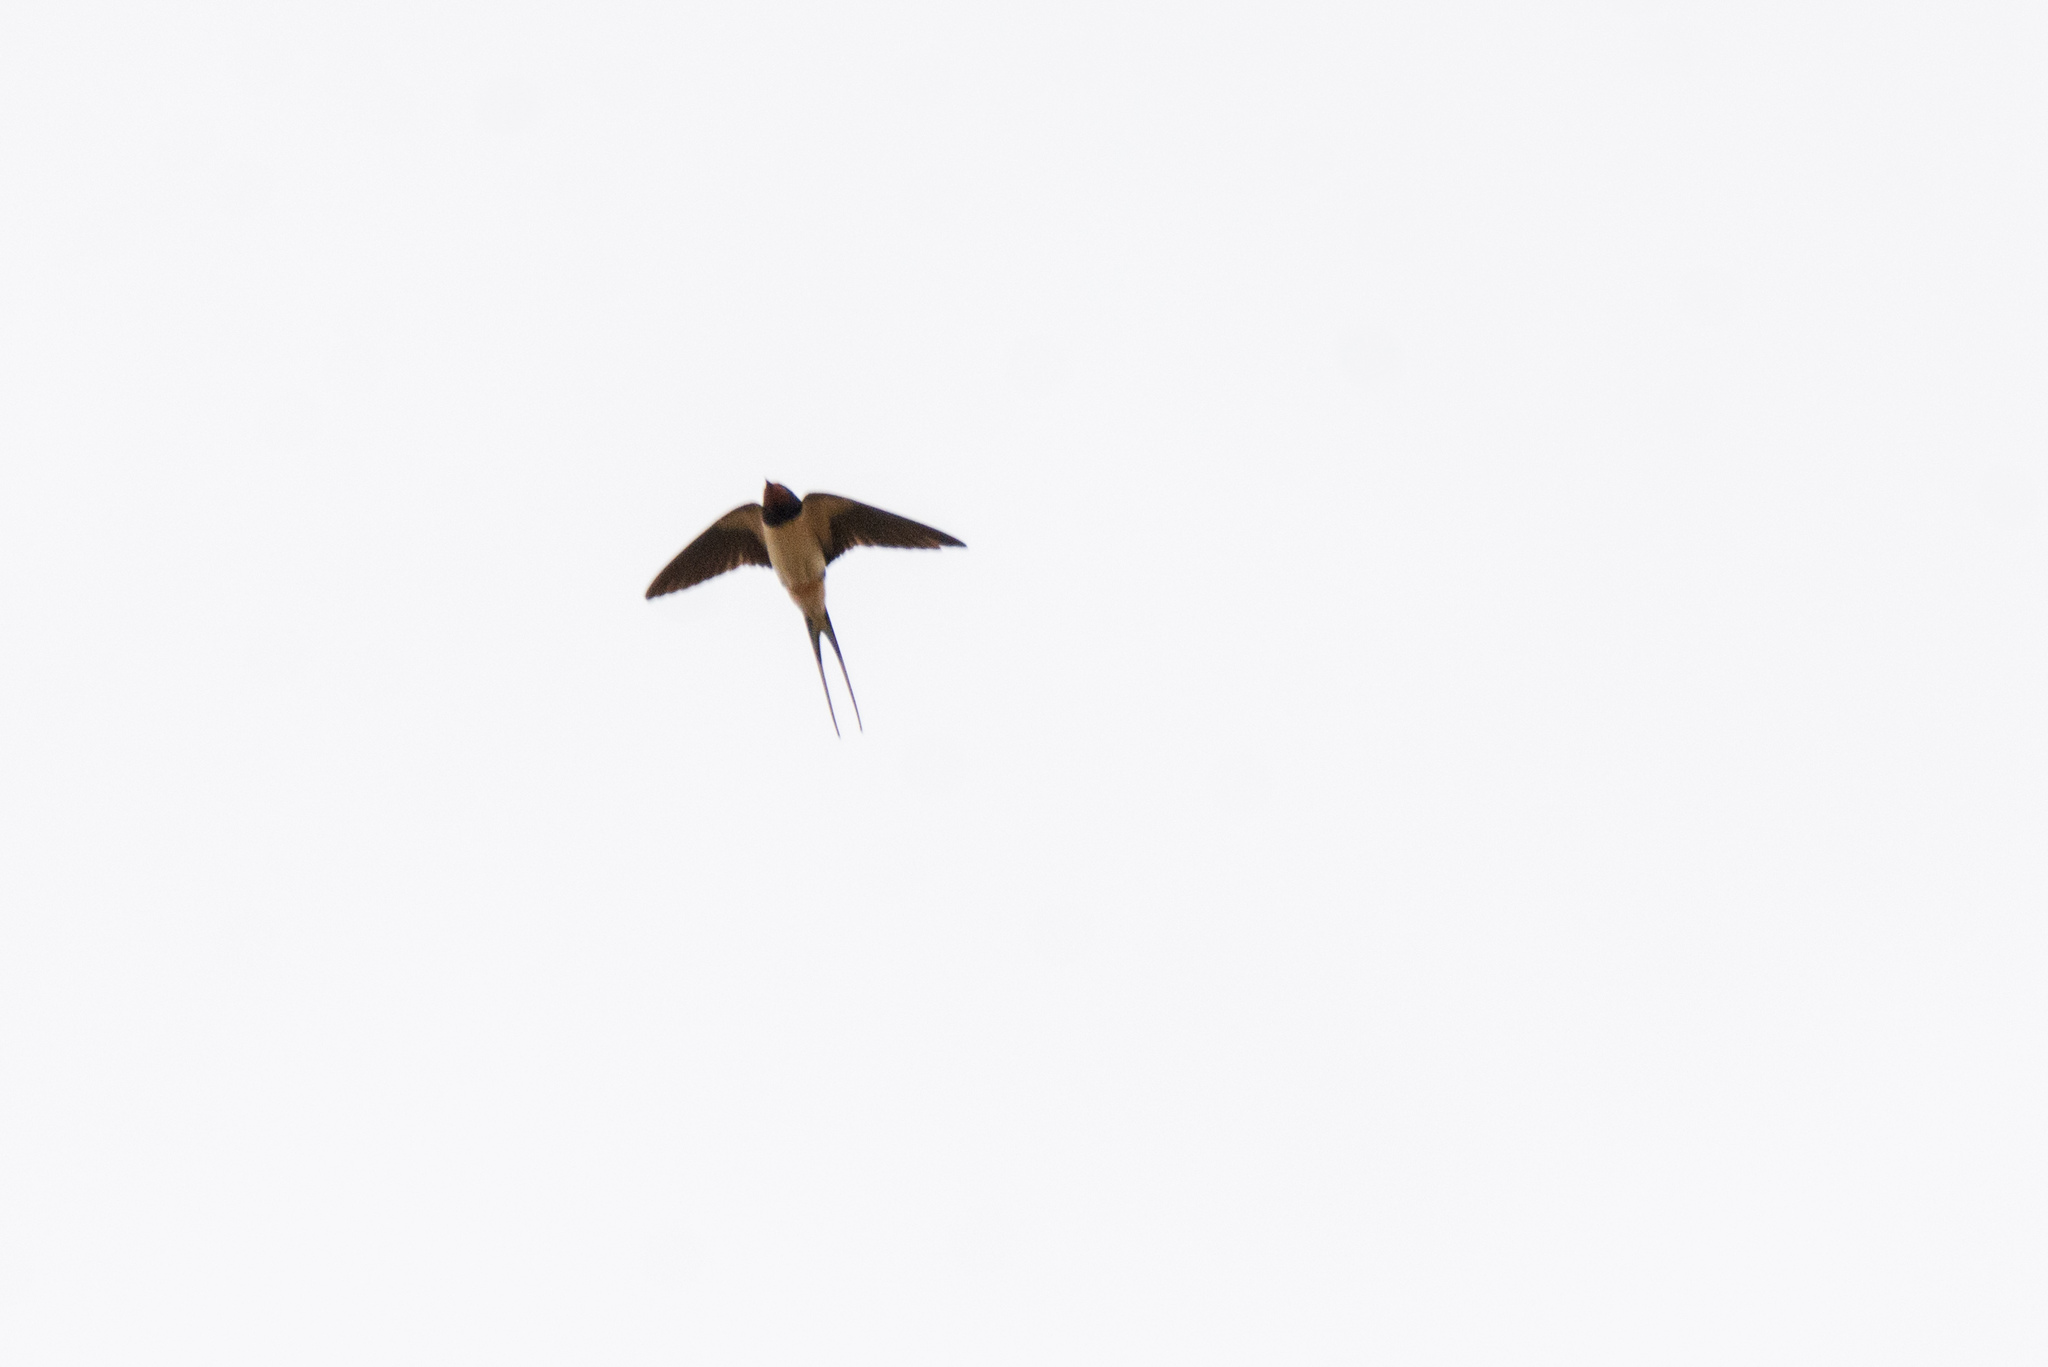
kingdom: Animalia
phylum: Chordata
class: Aves
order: Passeriformes
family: Hirundinidae
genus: Hirundo
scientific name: Hirundo rustica
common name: Barn swallow
